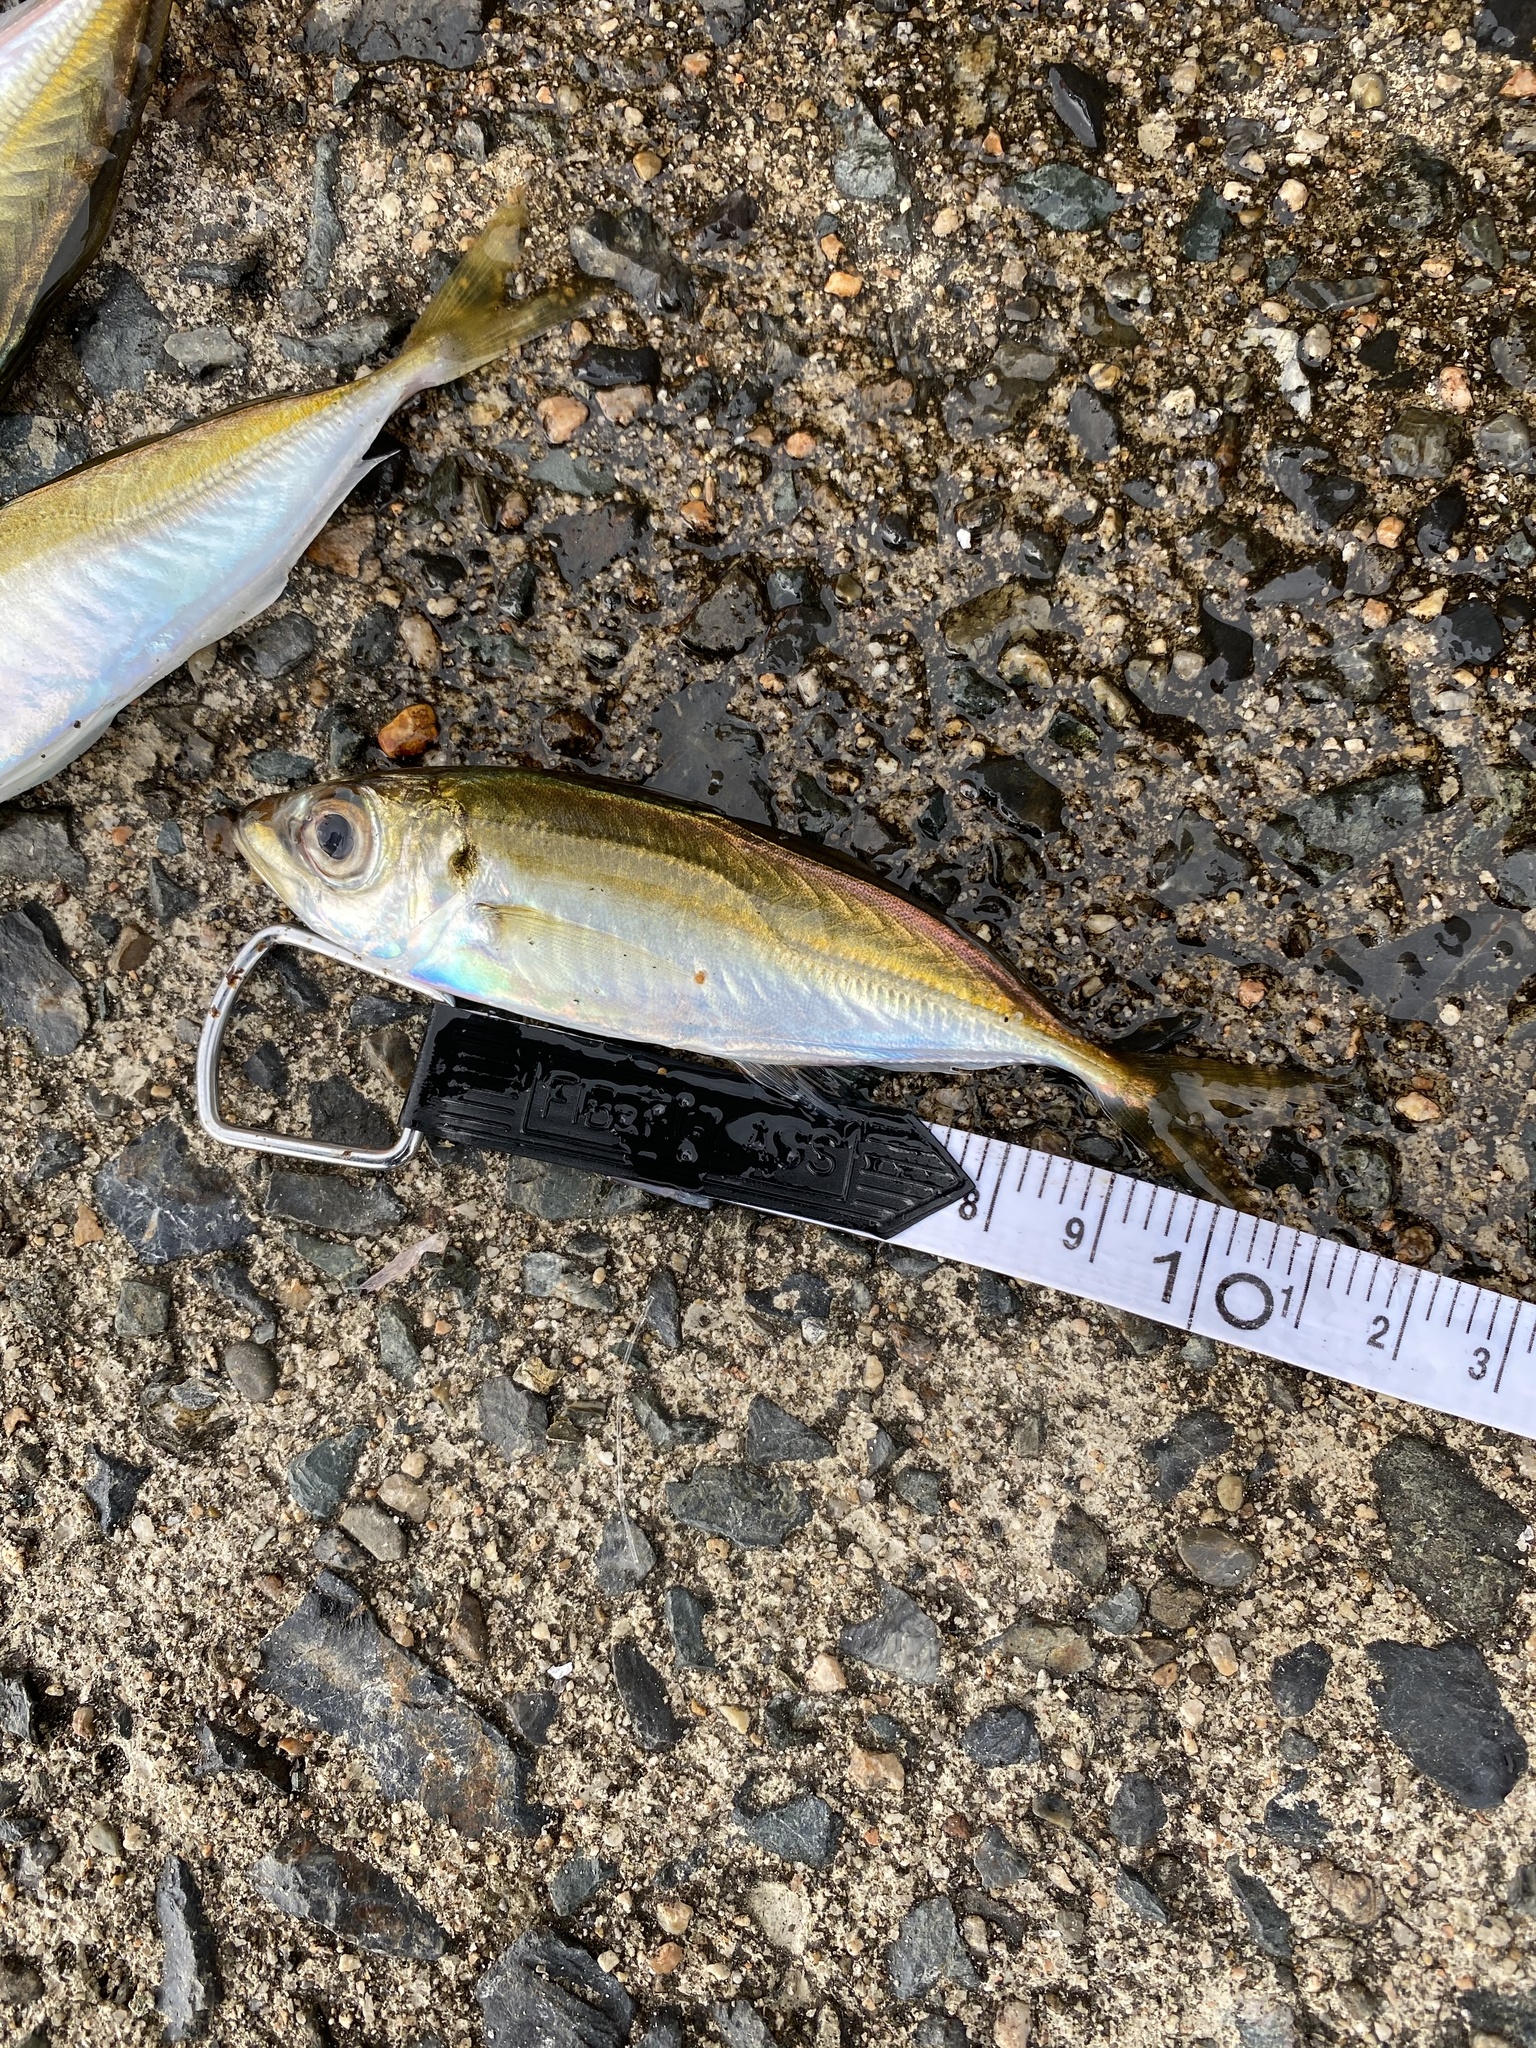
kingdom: Animalia
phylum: Chordata
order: Perciformes
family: Carangidae
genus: Trachurus
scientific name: Trachurus japonicus
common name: Japanese jack mackerel
